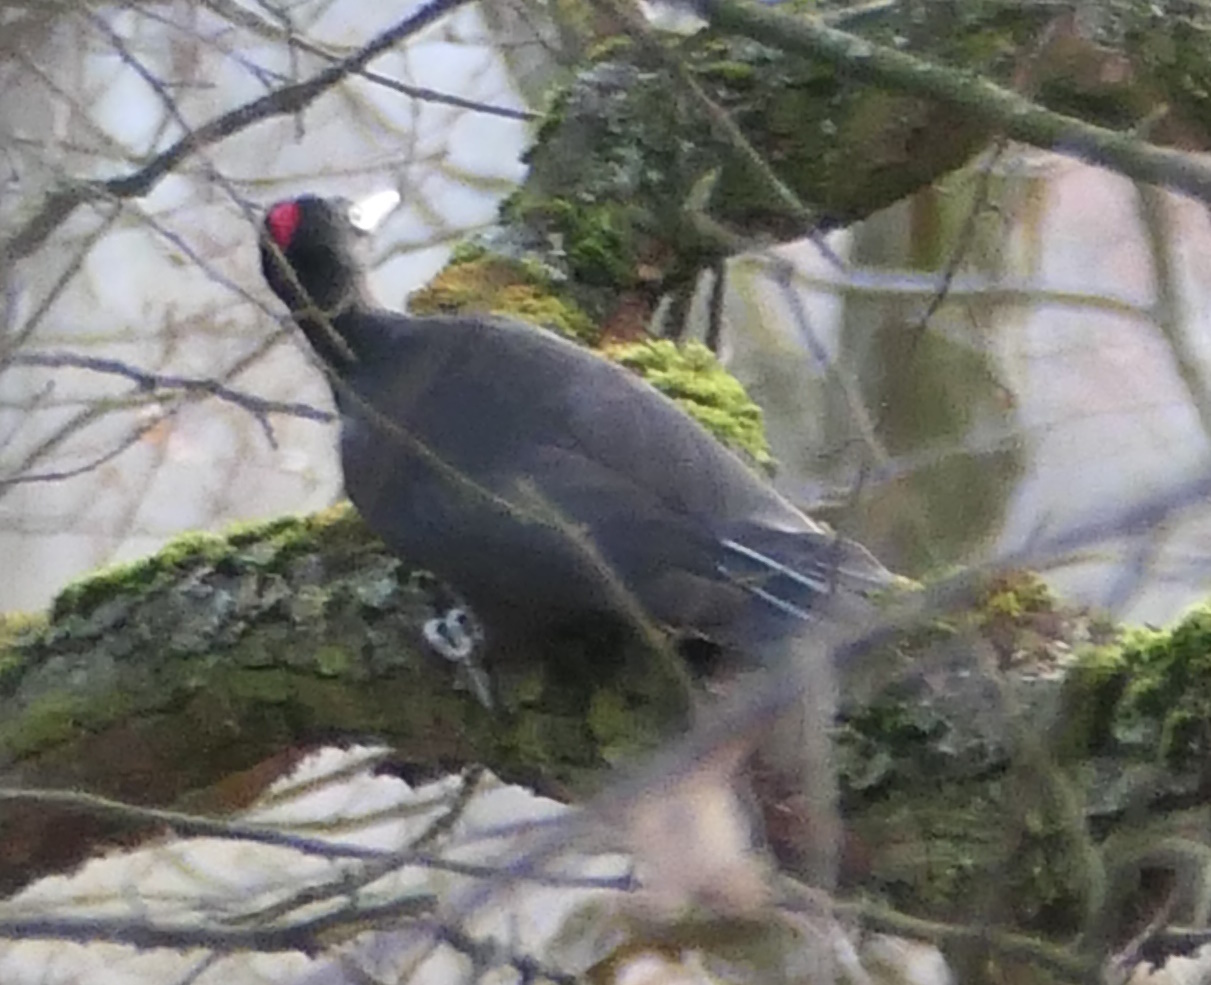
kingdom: Animalia
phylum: Chordata
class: Aves
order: Piciformes
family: Picidae
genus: Dryocopus
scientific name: Dryocopus martius
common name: Black woodpecker
